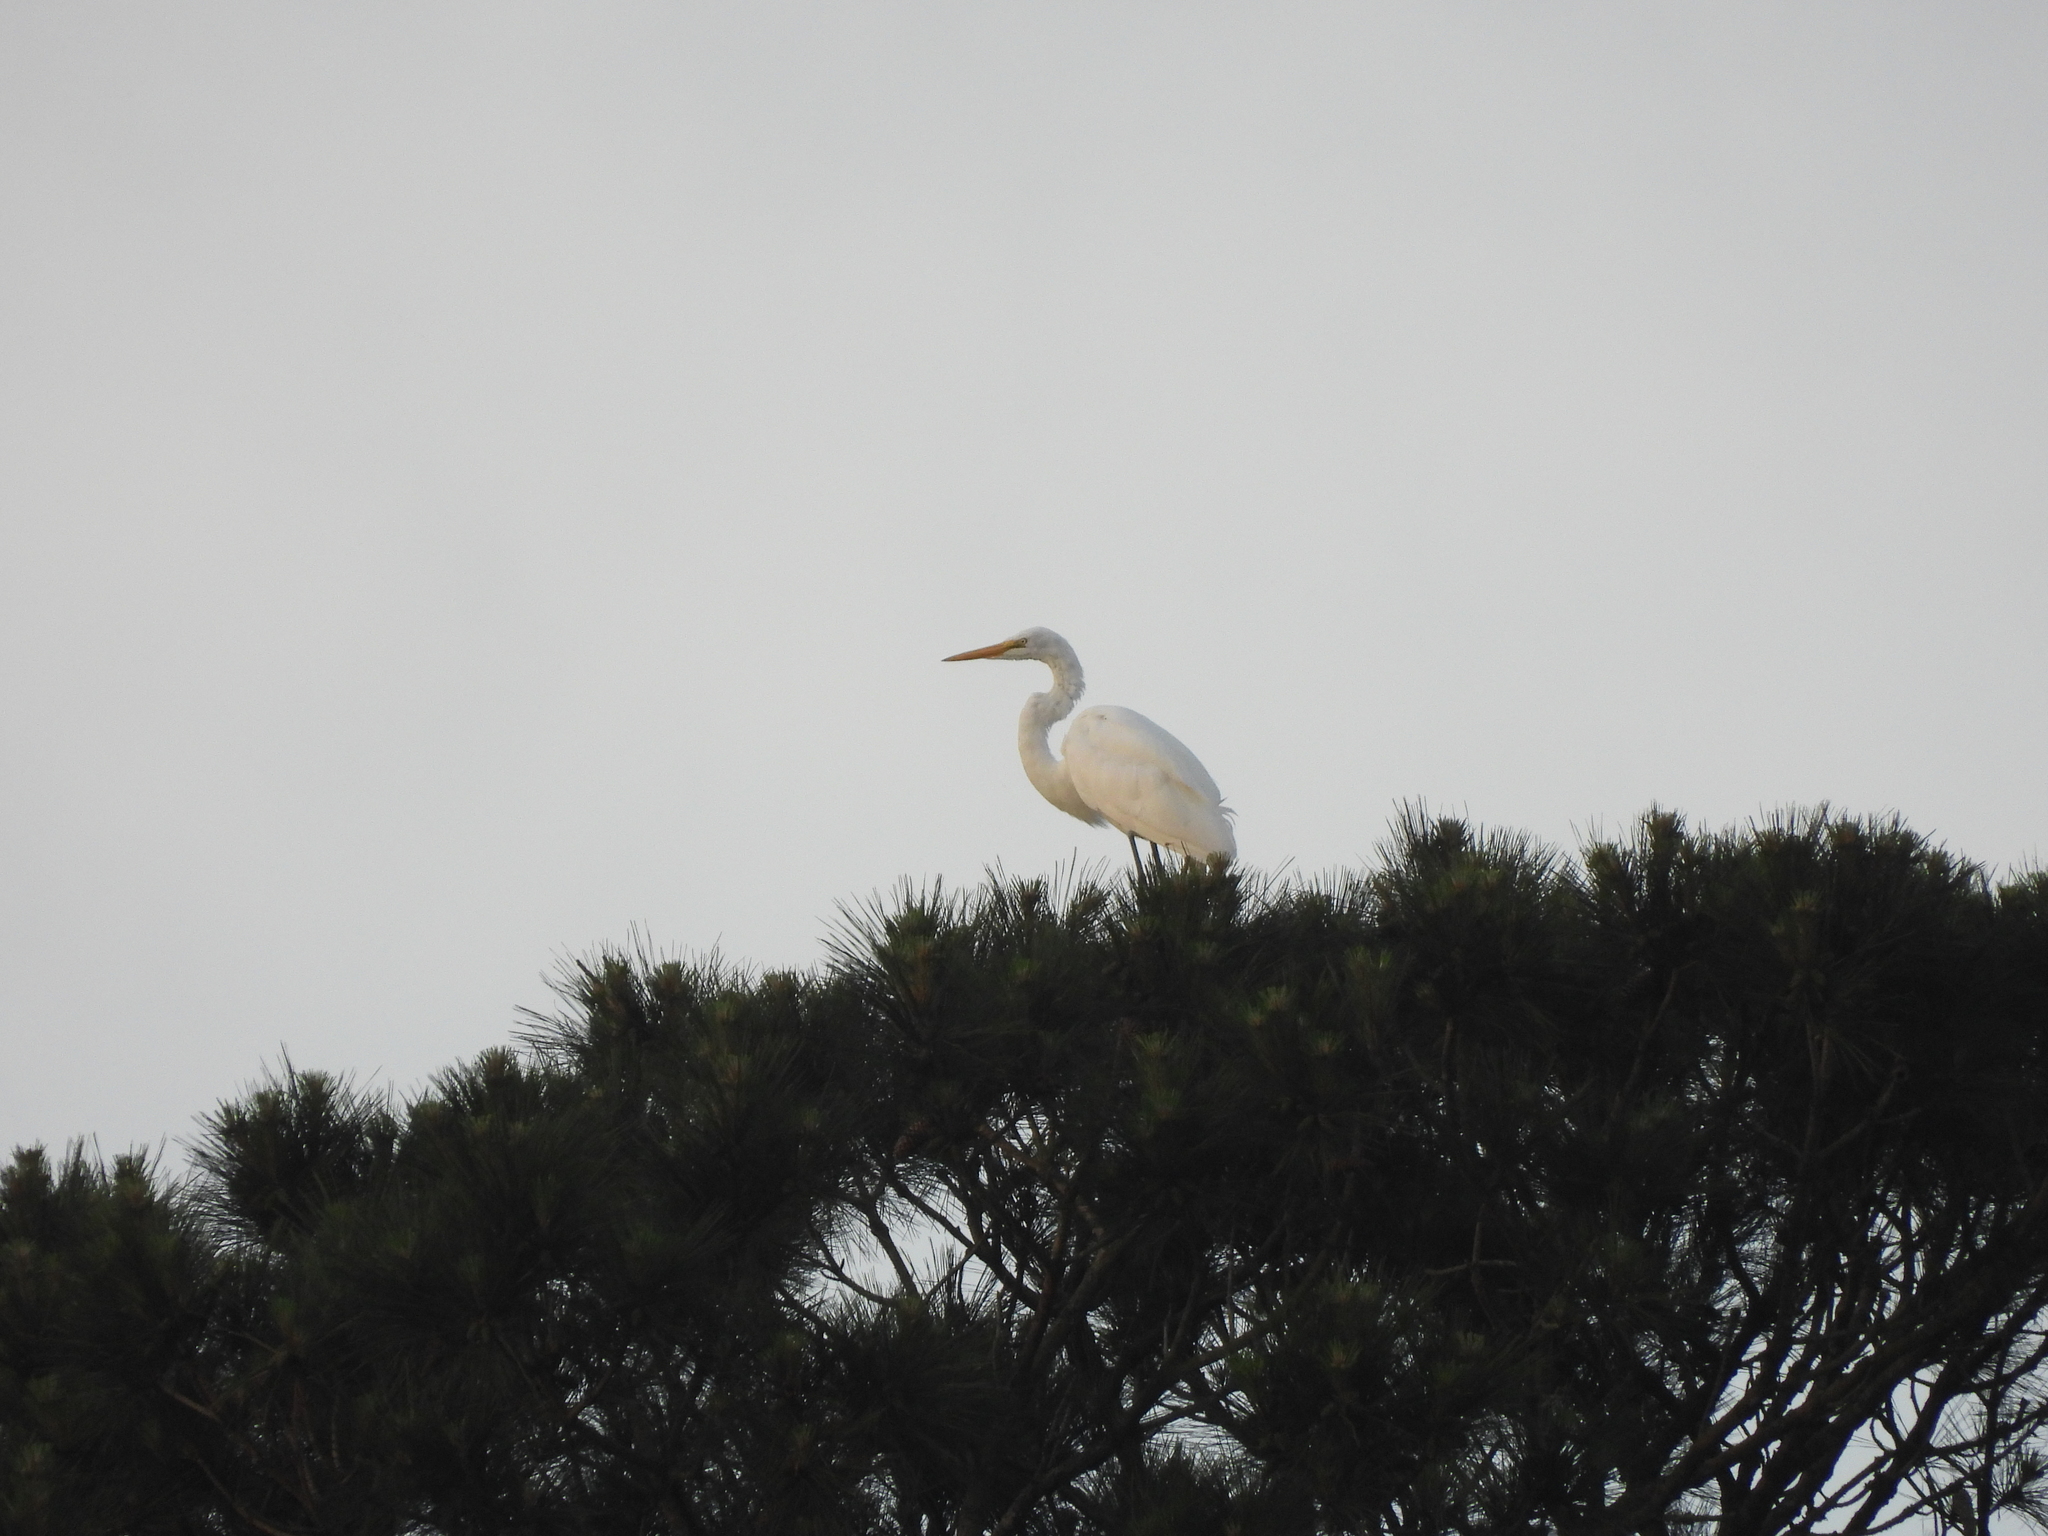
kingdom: Animalia
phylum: Chordata
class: Aves
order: Pelecaniformes
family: Ardeidae
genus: Ardea
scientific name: Ardea alba
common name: Great egret
